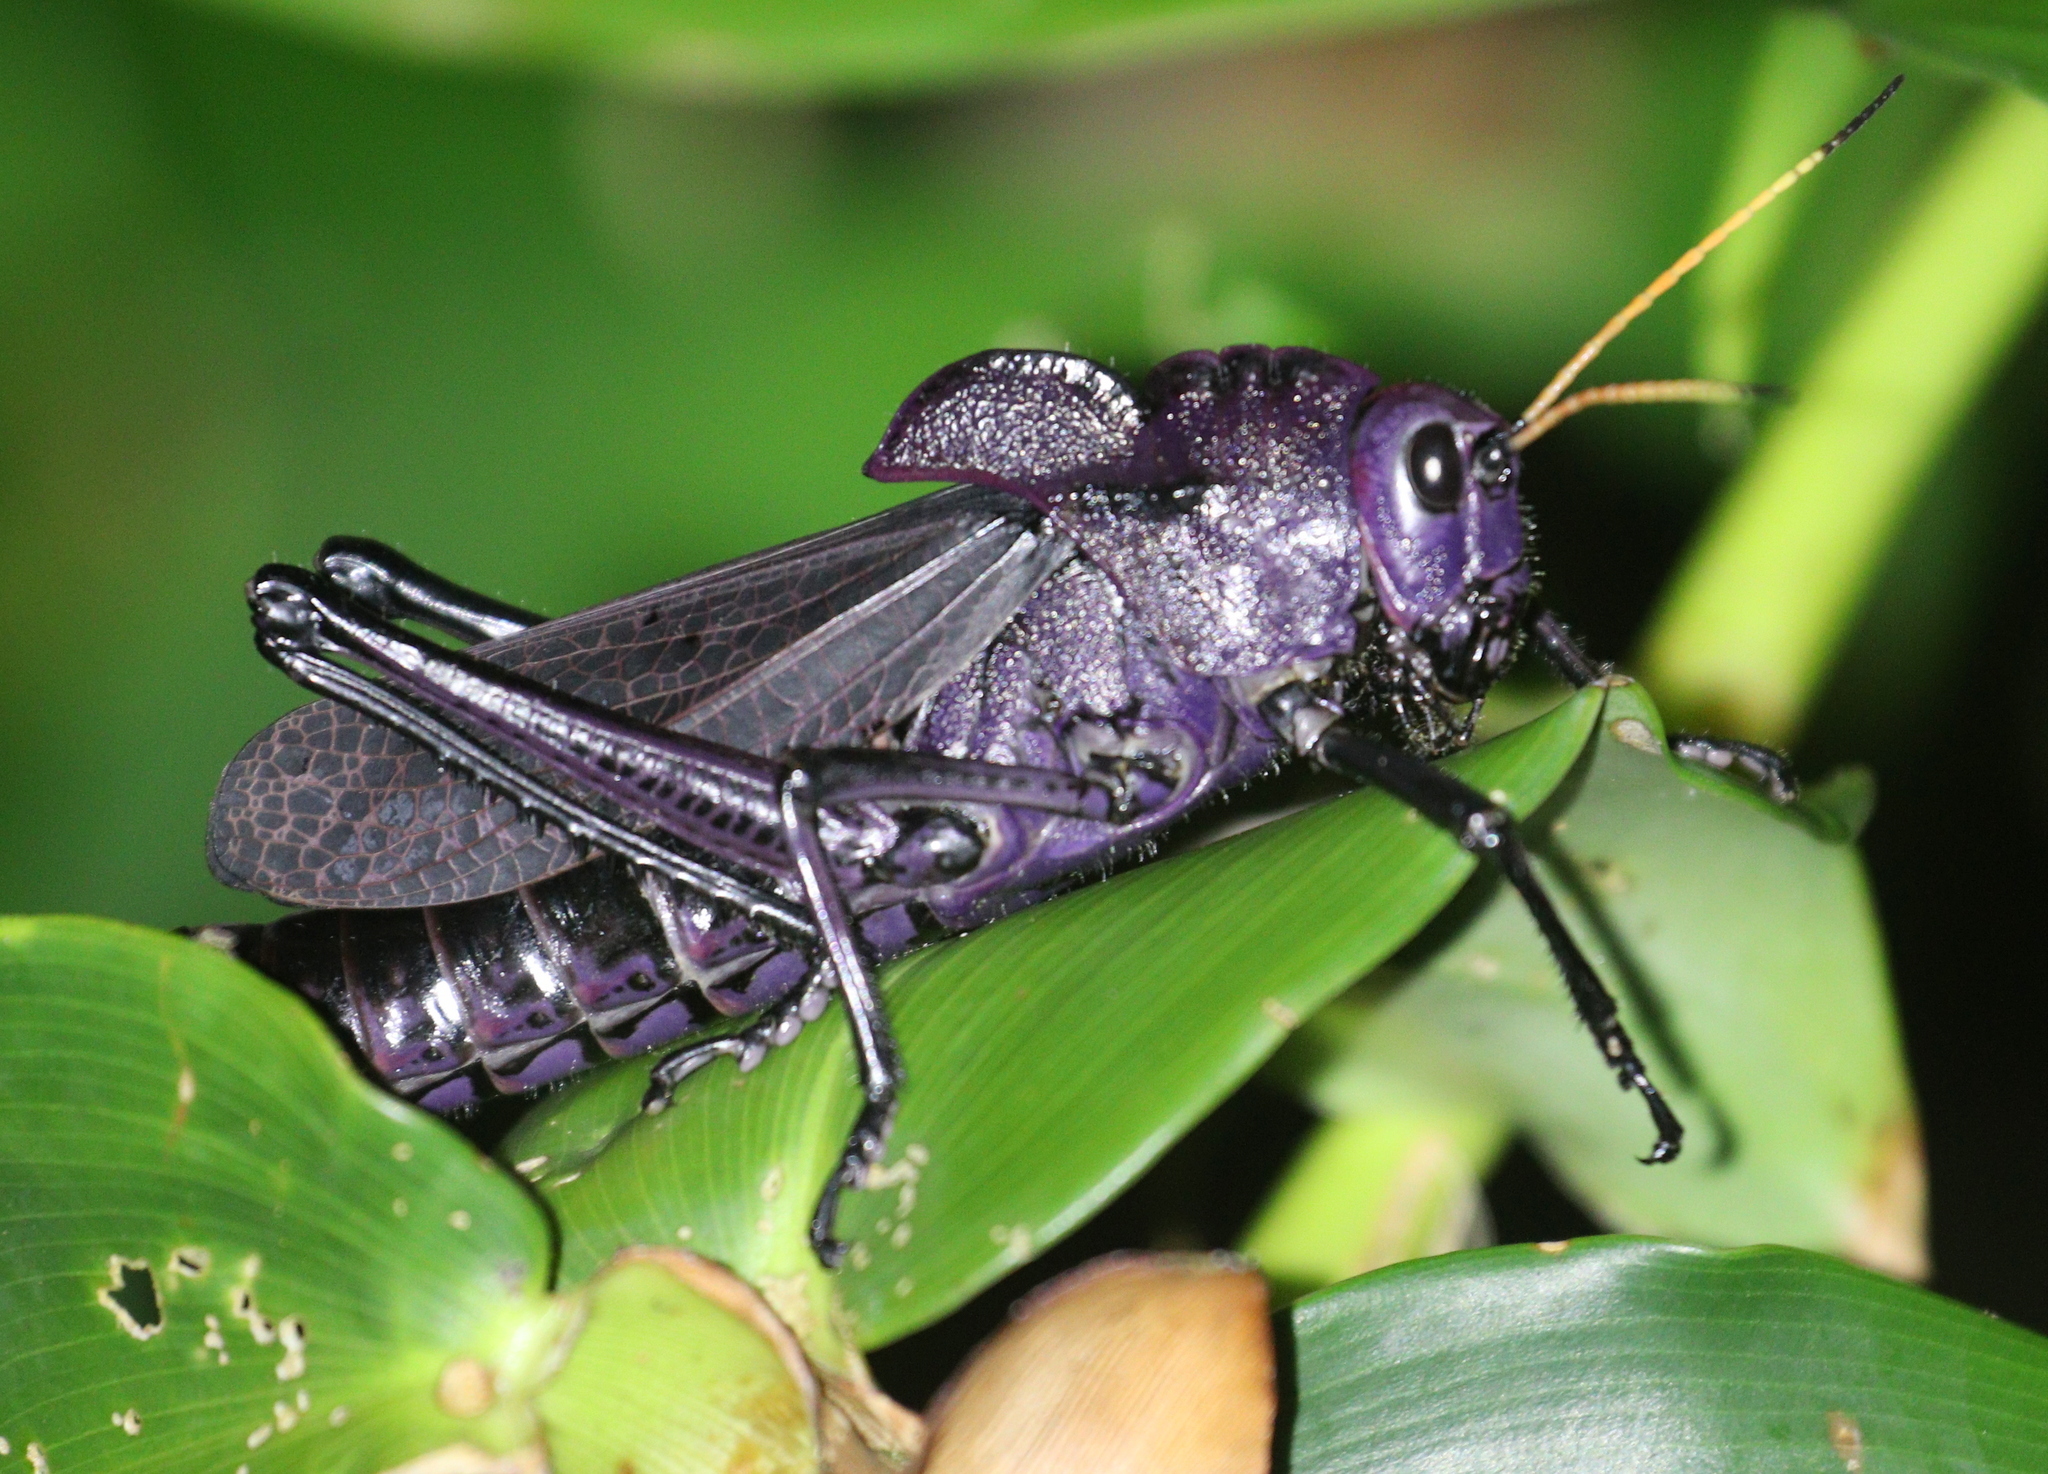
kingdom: Animalia
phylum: Arthropoda
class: Insecta
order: Orthoptera
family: Romaleidae
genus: Romalea
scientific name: Romalea
